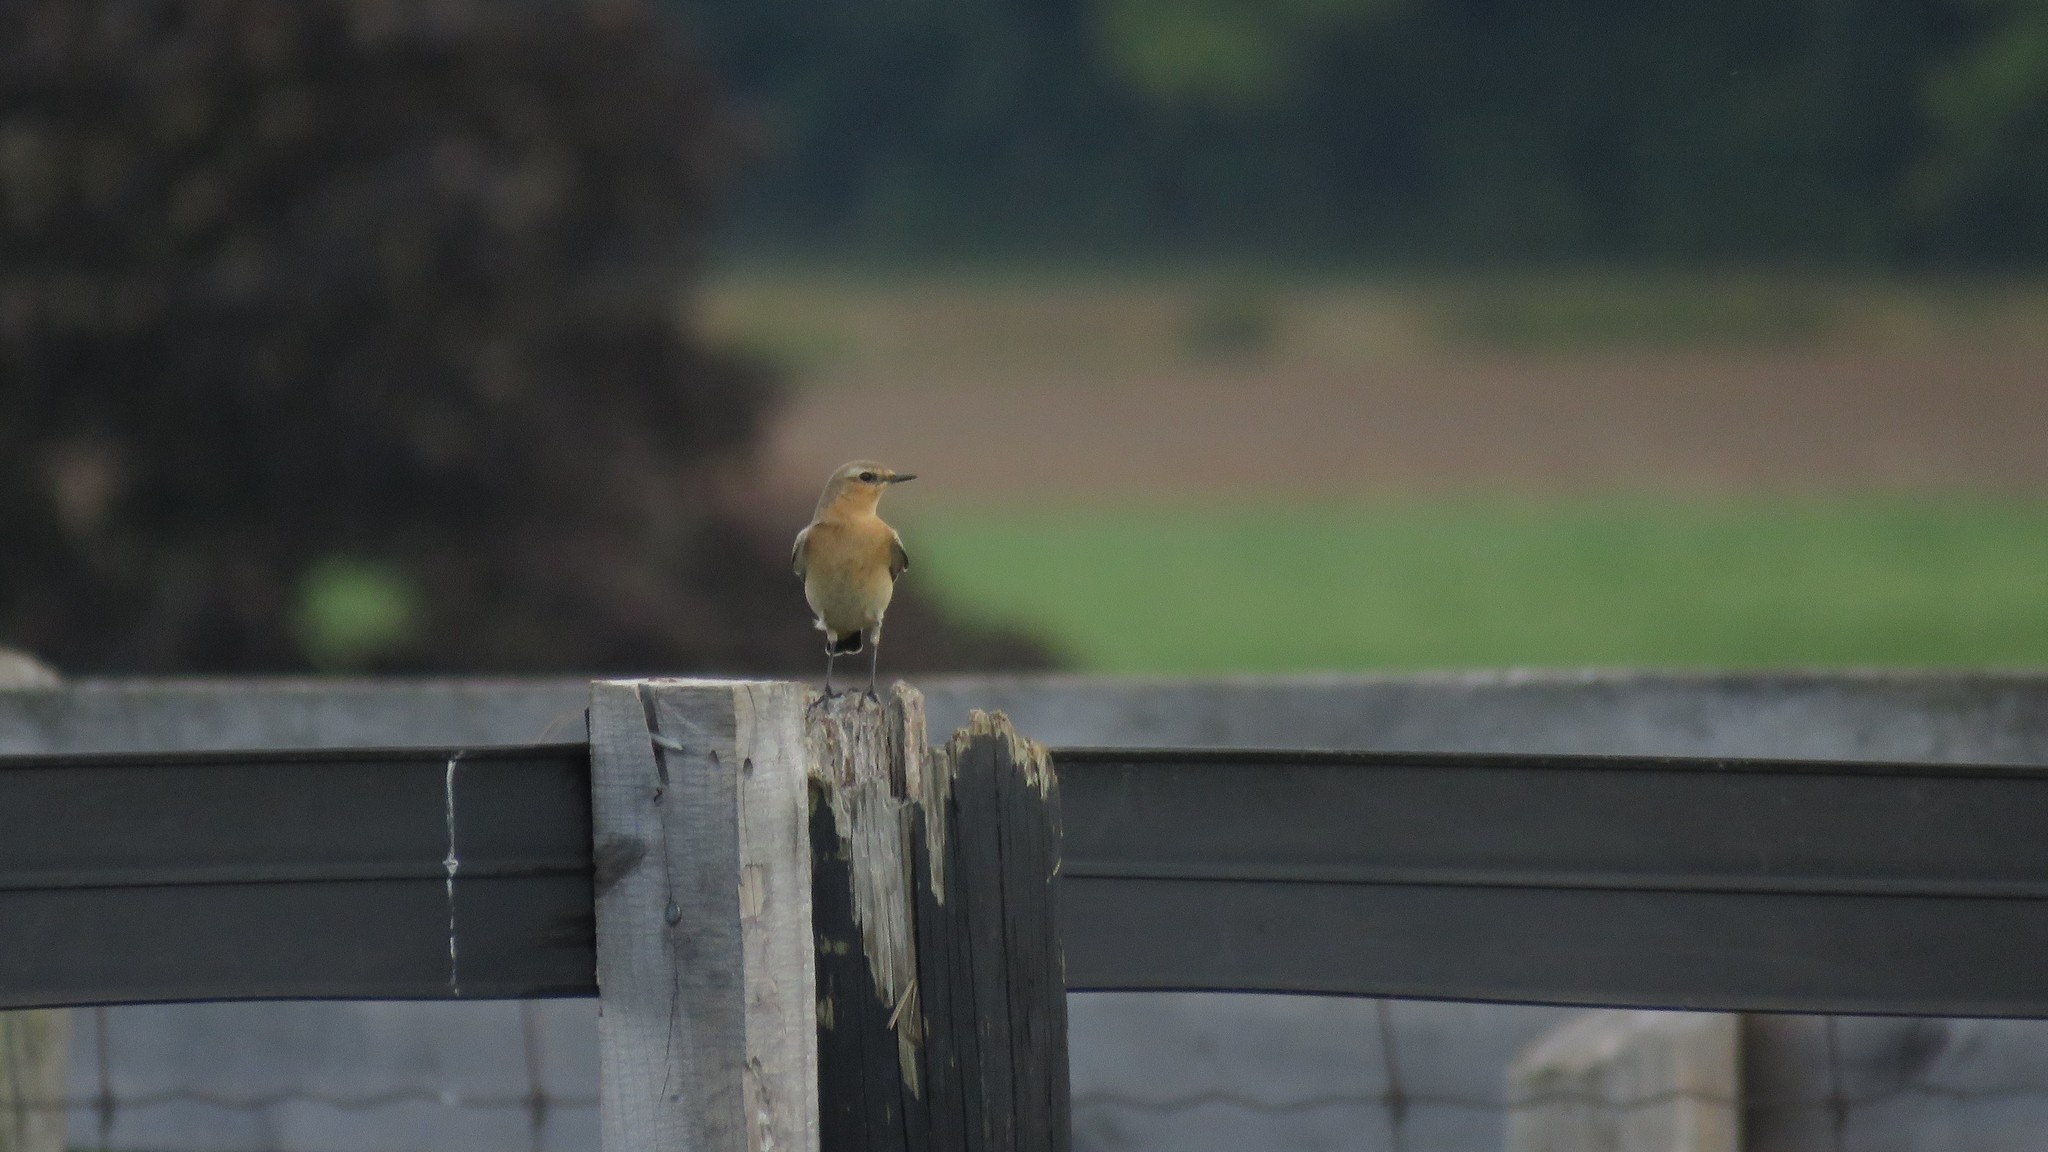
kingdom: Animalia
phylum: Chordata
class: Aves
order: Passeriformes
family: Muscicapidae
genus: Oenanthe
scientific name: Oenanthe oenanthe
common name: Northern wheatear
